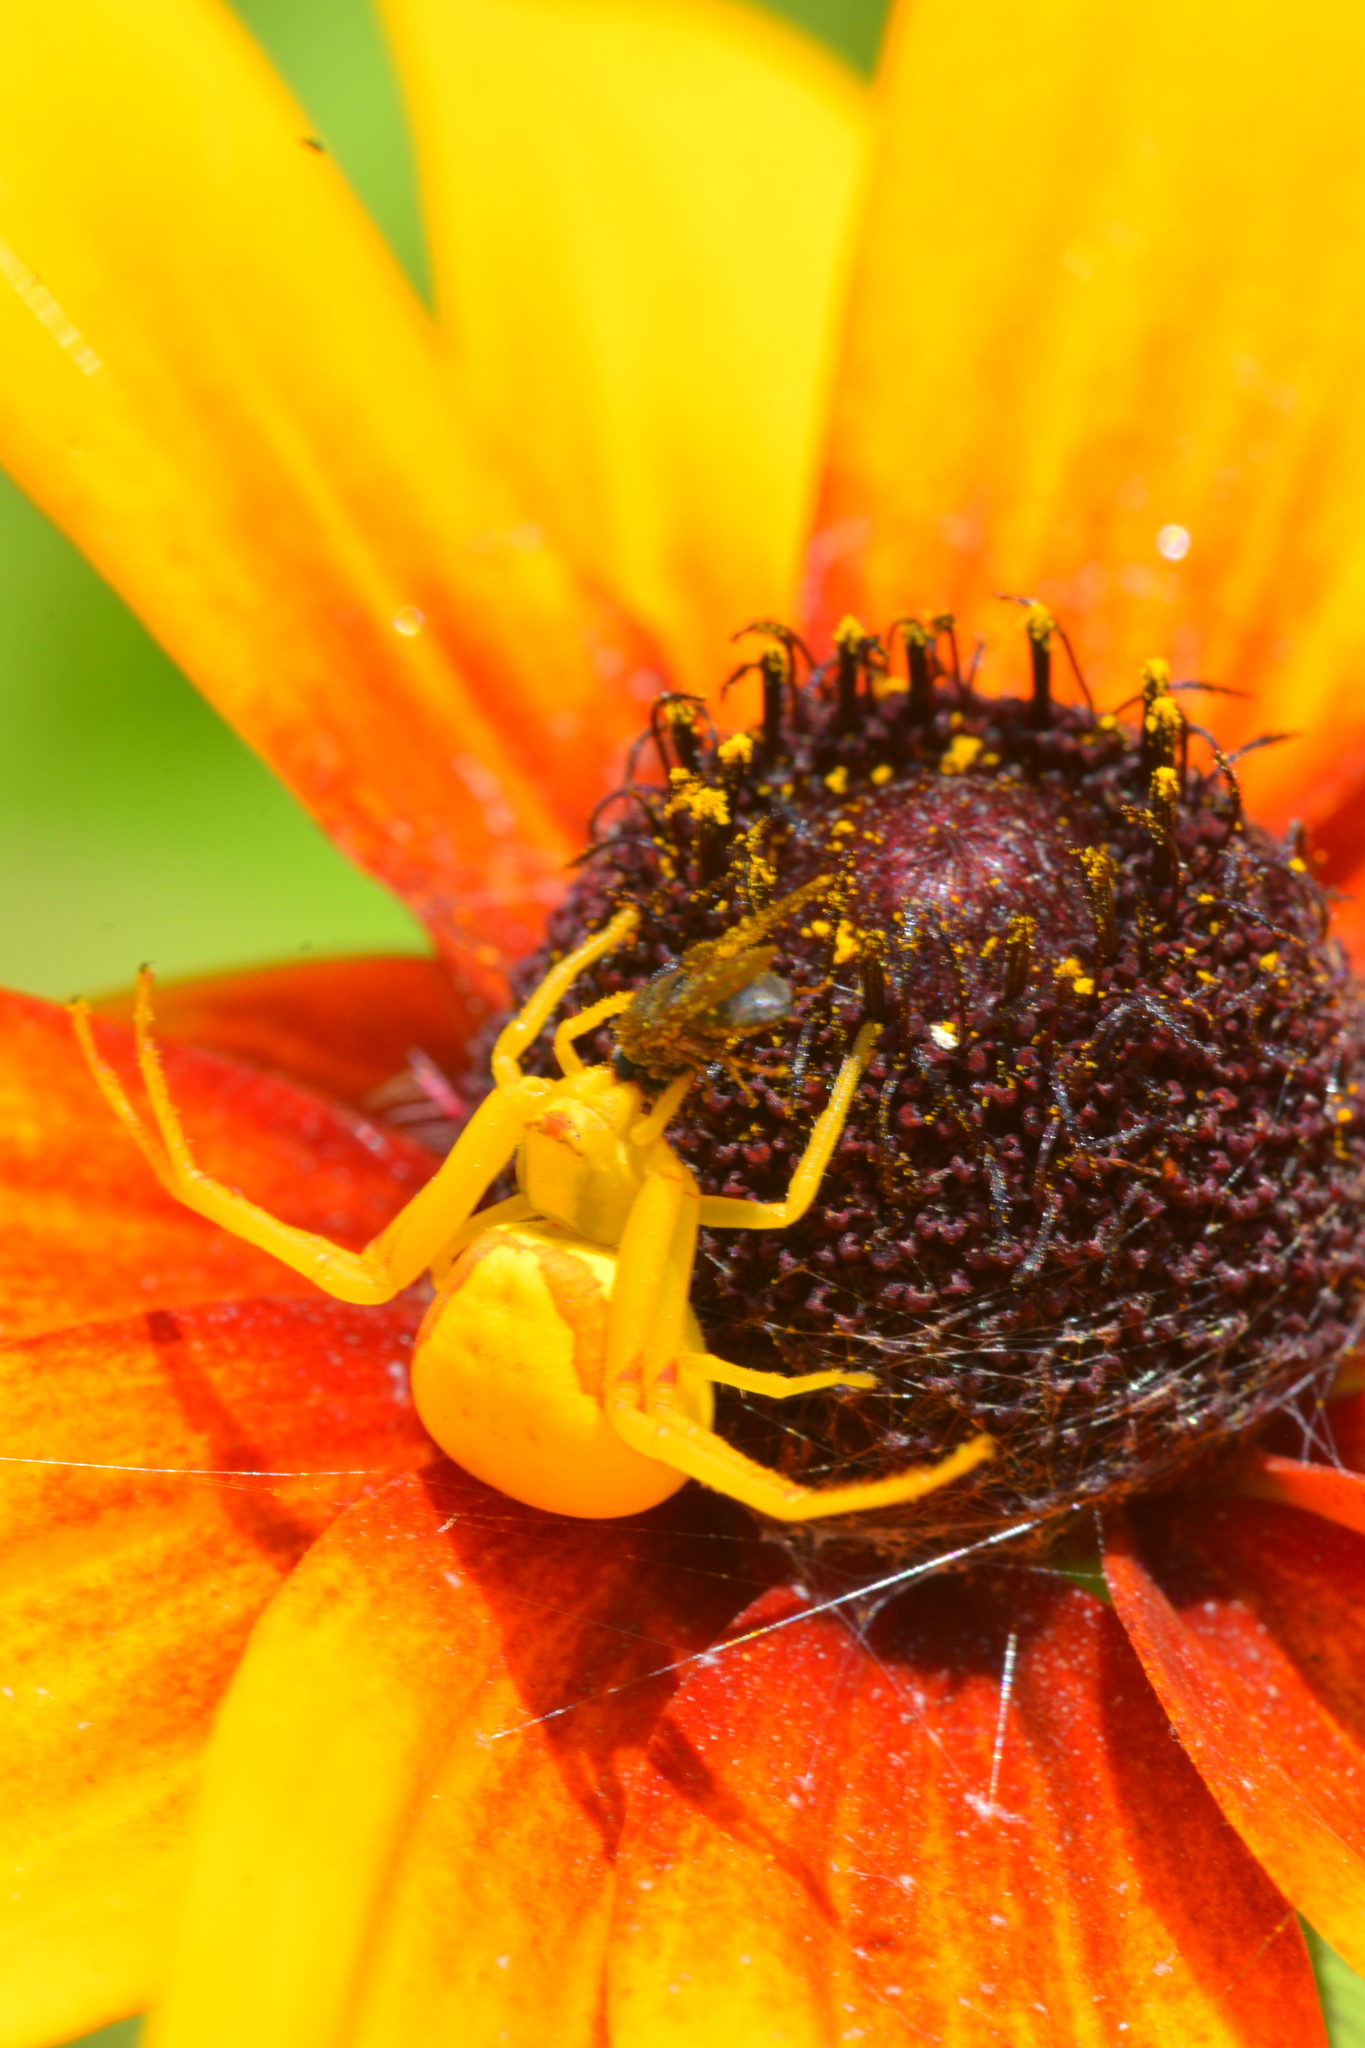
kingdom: Animalia
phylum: Arthropoda
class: Arachnida
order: Araneae
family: Thomisidae
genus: Misumena
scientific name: Misumena vatia
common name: Goldenrod crab spider
